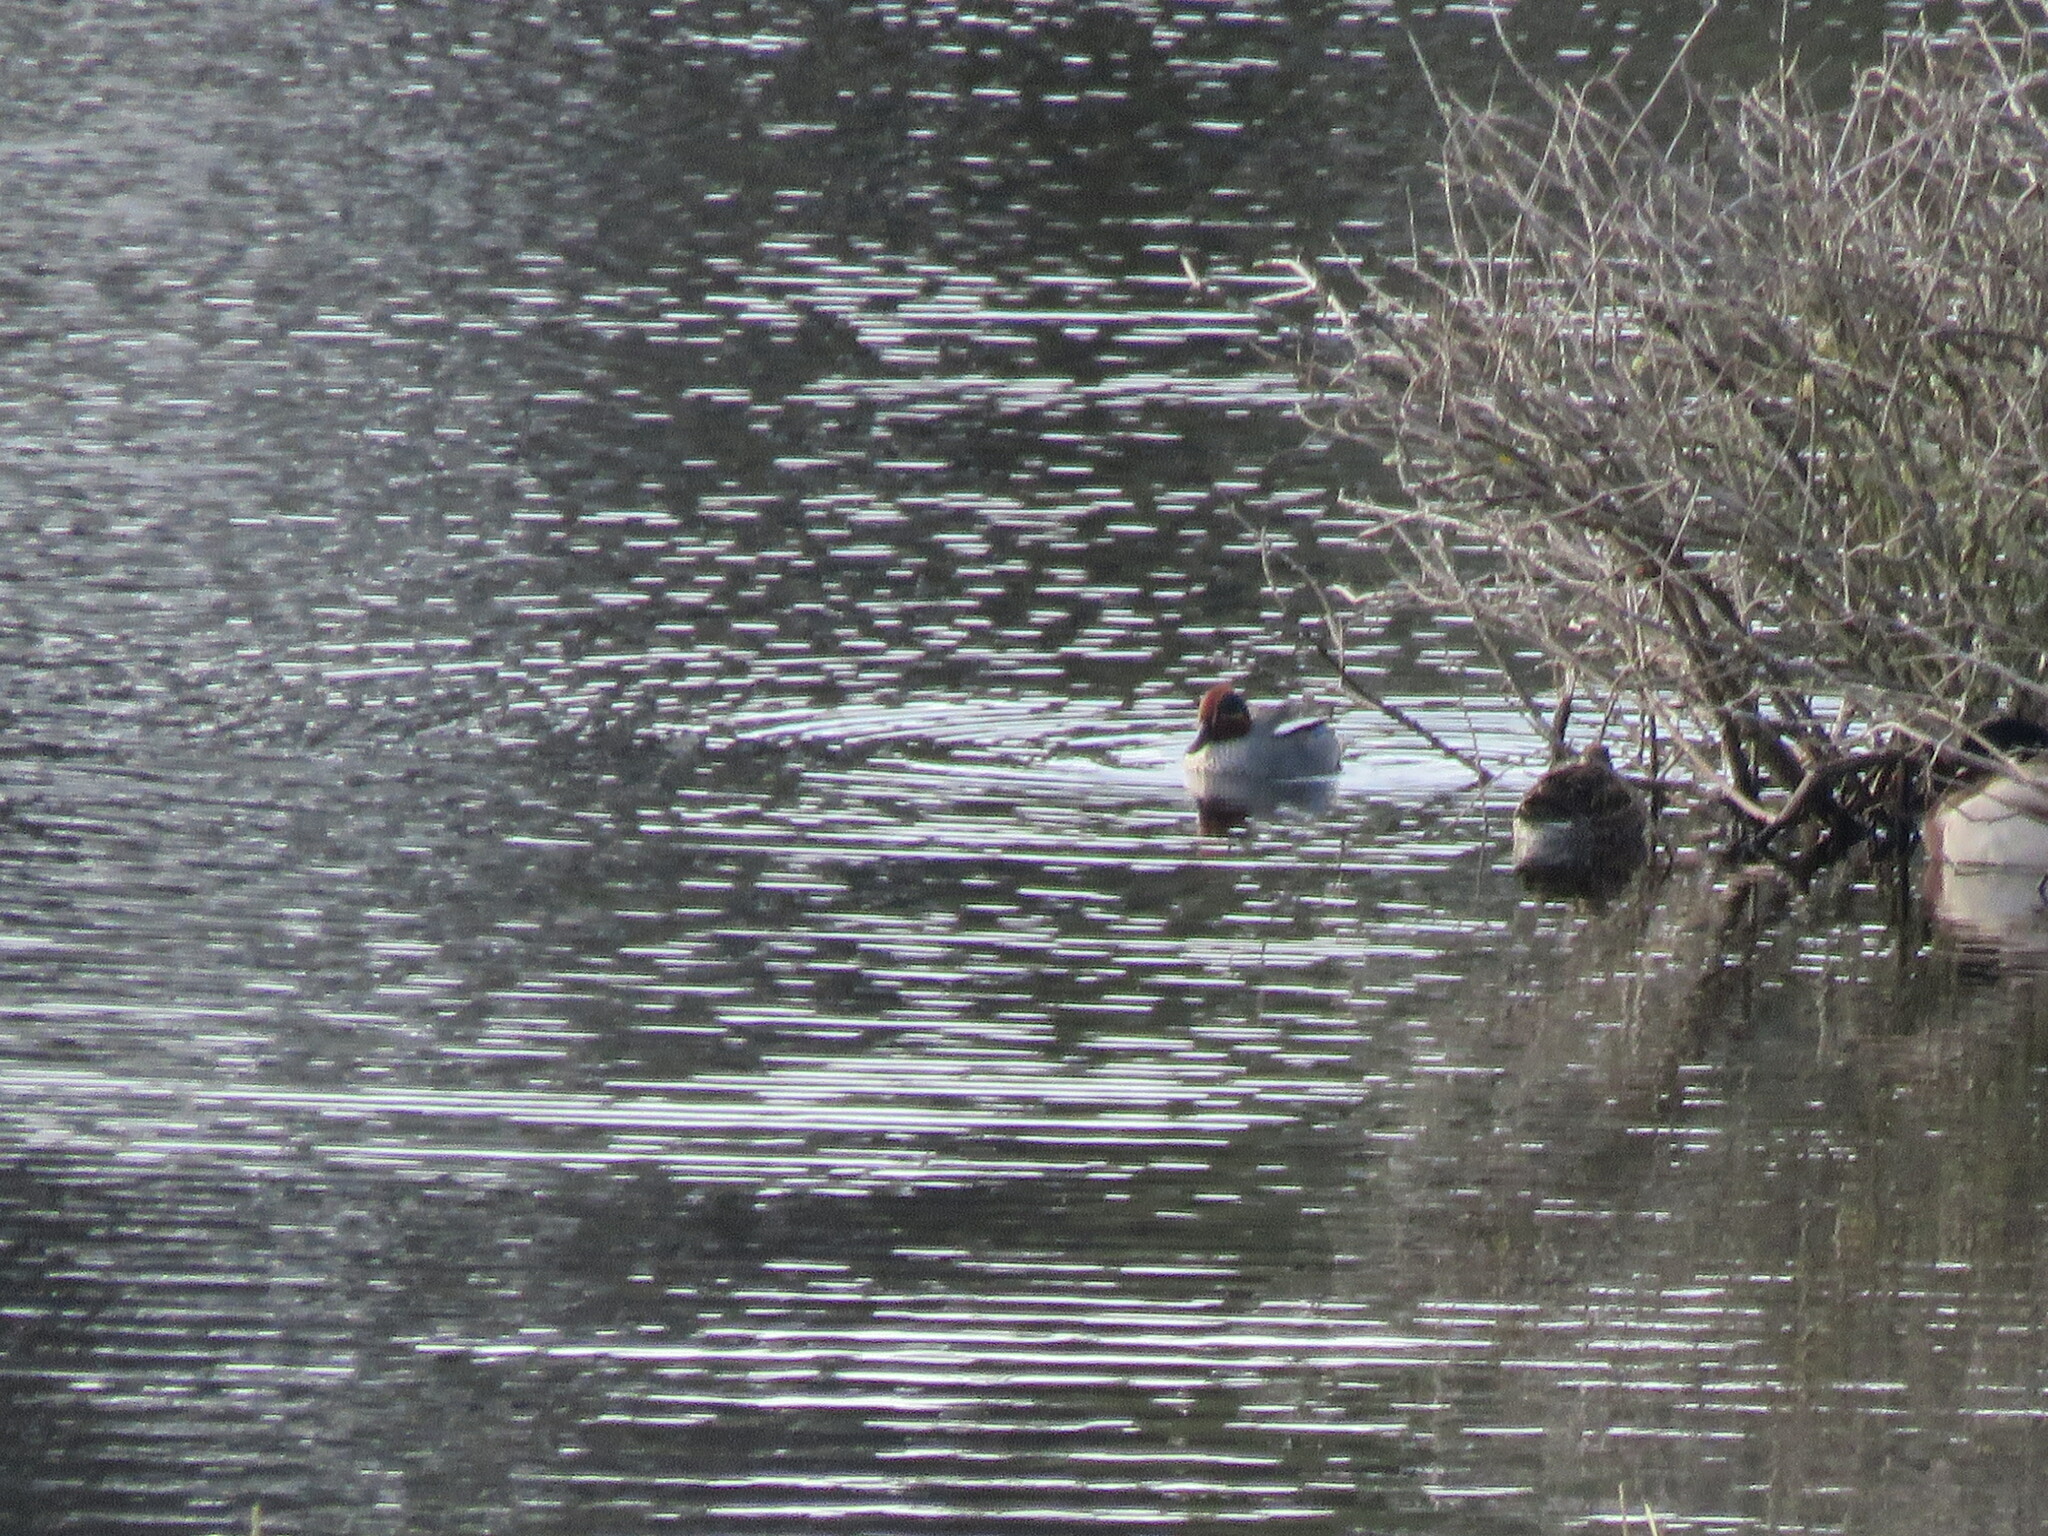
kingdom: Animalia
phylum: Chordata
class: Aves
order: Anseriformes
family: Anatidae
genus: Anas
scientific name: Anas crecca
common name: Eurasian teal
